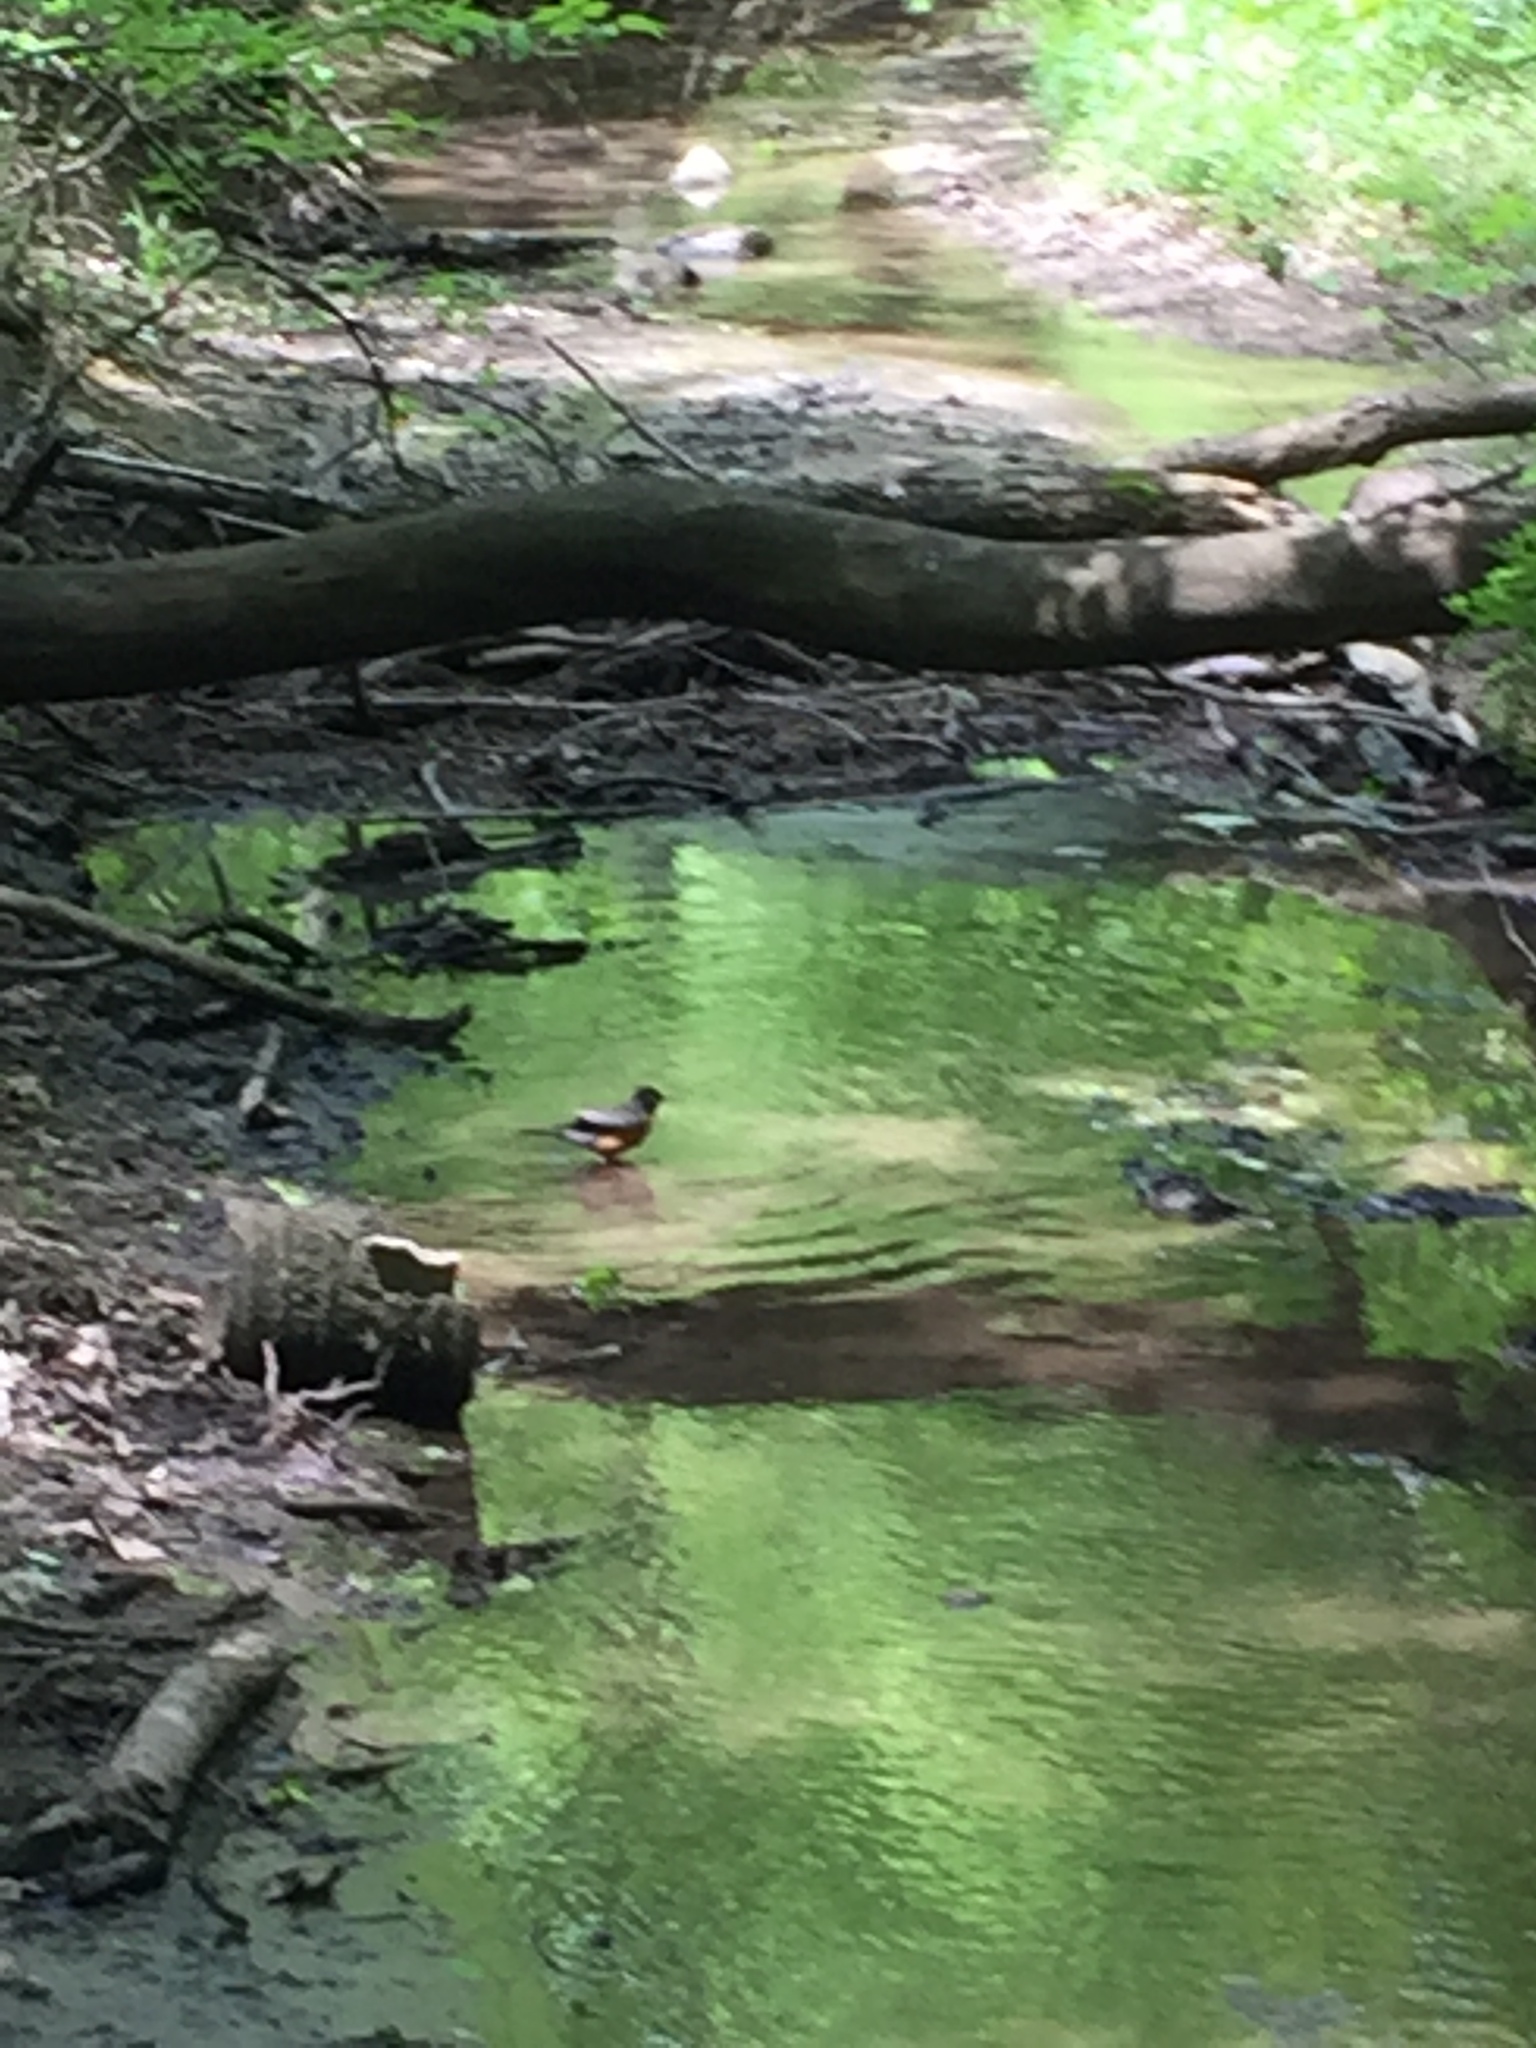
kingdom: Animalia
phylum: Chordata
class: Aves
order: Passeriformes
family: Turdidae
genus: Turdus
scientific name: Turdus migratorius
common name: American robin
